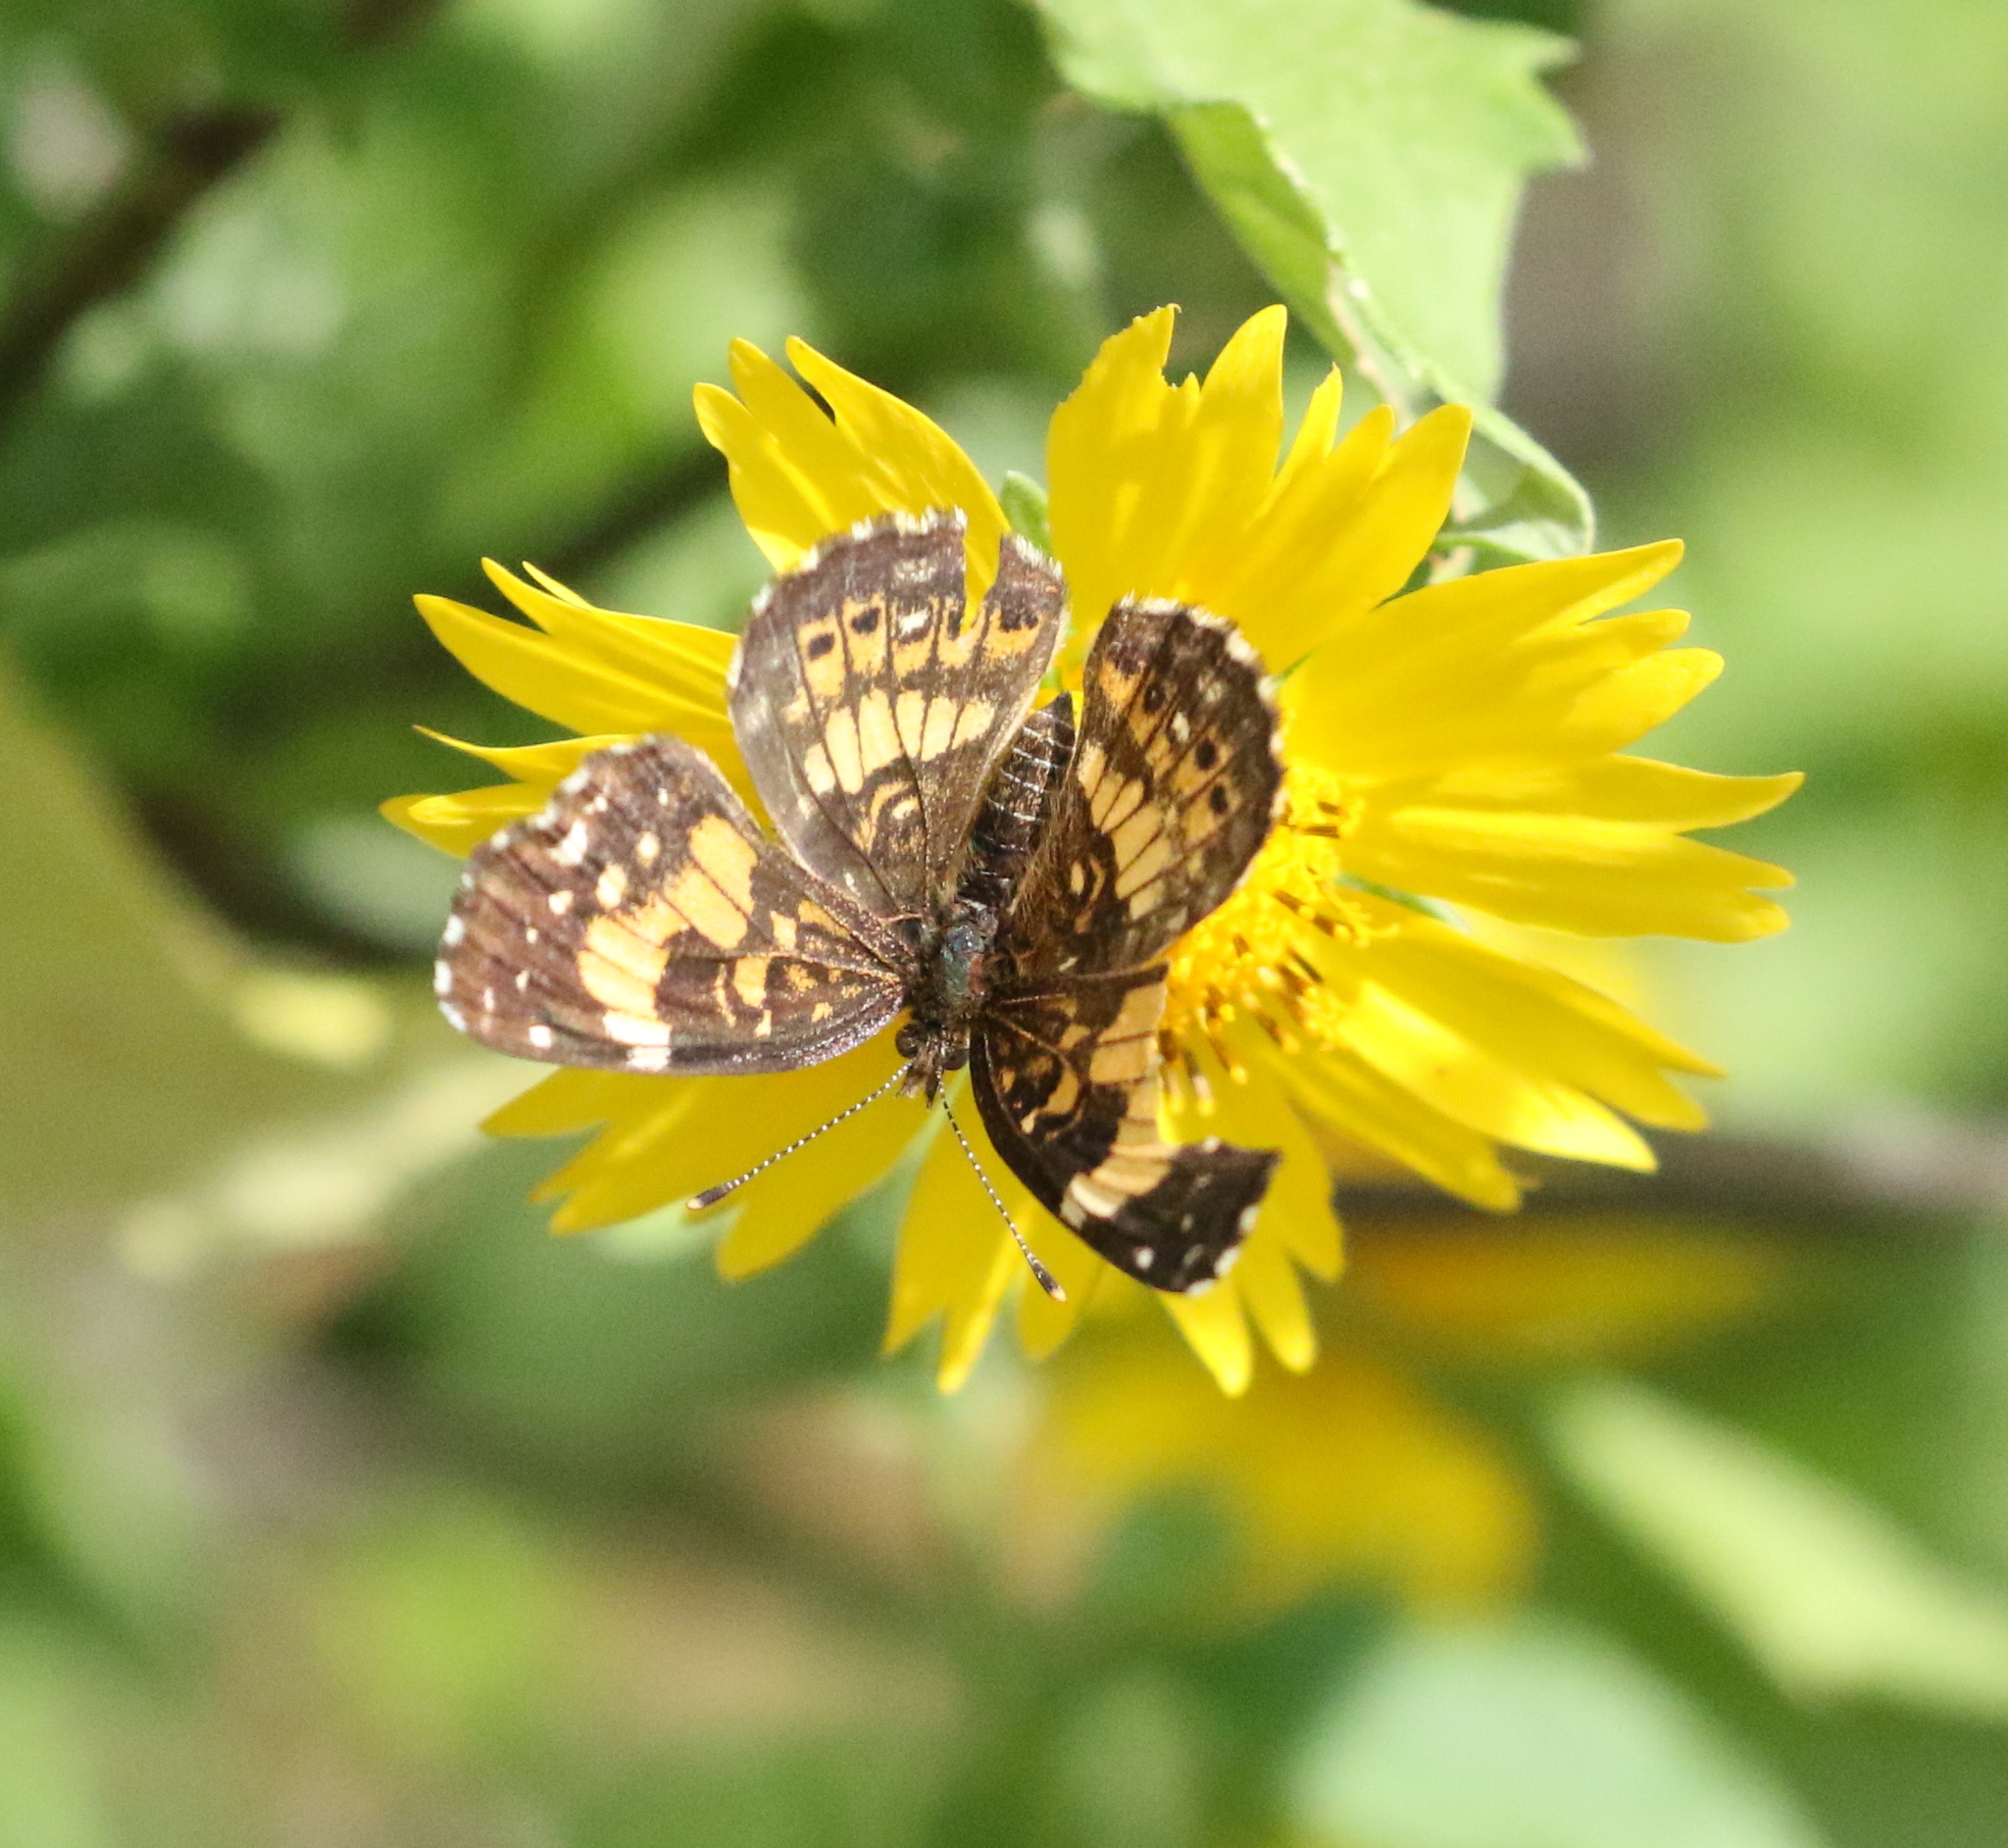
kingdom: Animalia
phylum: Arthropoda
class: Insecta
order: Lepidoptera
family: Nymphalidae
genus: Chlosyne
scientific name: Chlosyne nycteis
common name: Silvery checkerspot
